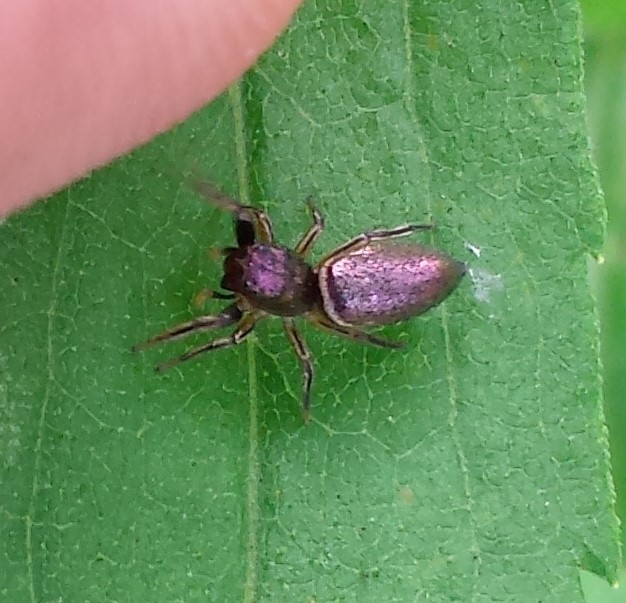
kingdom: Animalia
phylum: Arthropoda
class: Arachnida
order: Araneae
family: Salticidae
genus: Tutelina
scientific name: Tutelina elegans
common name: Thin-spined jumping spider
